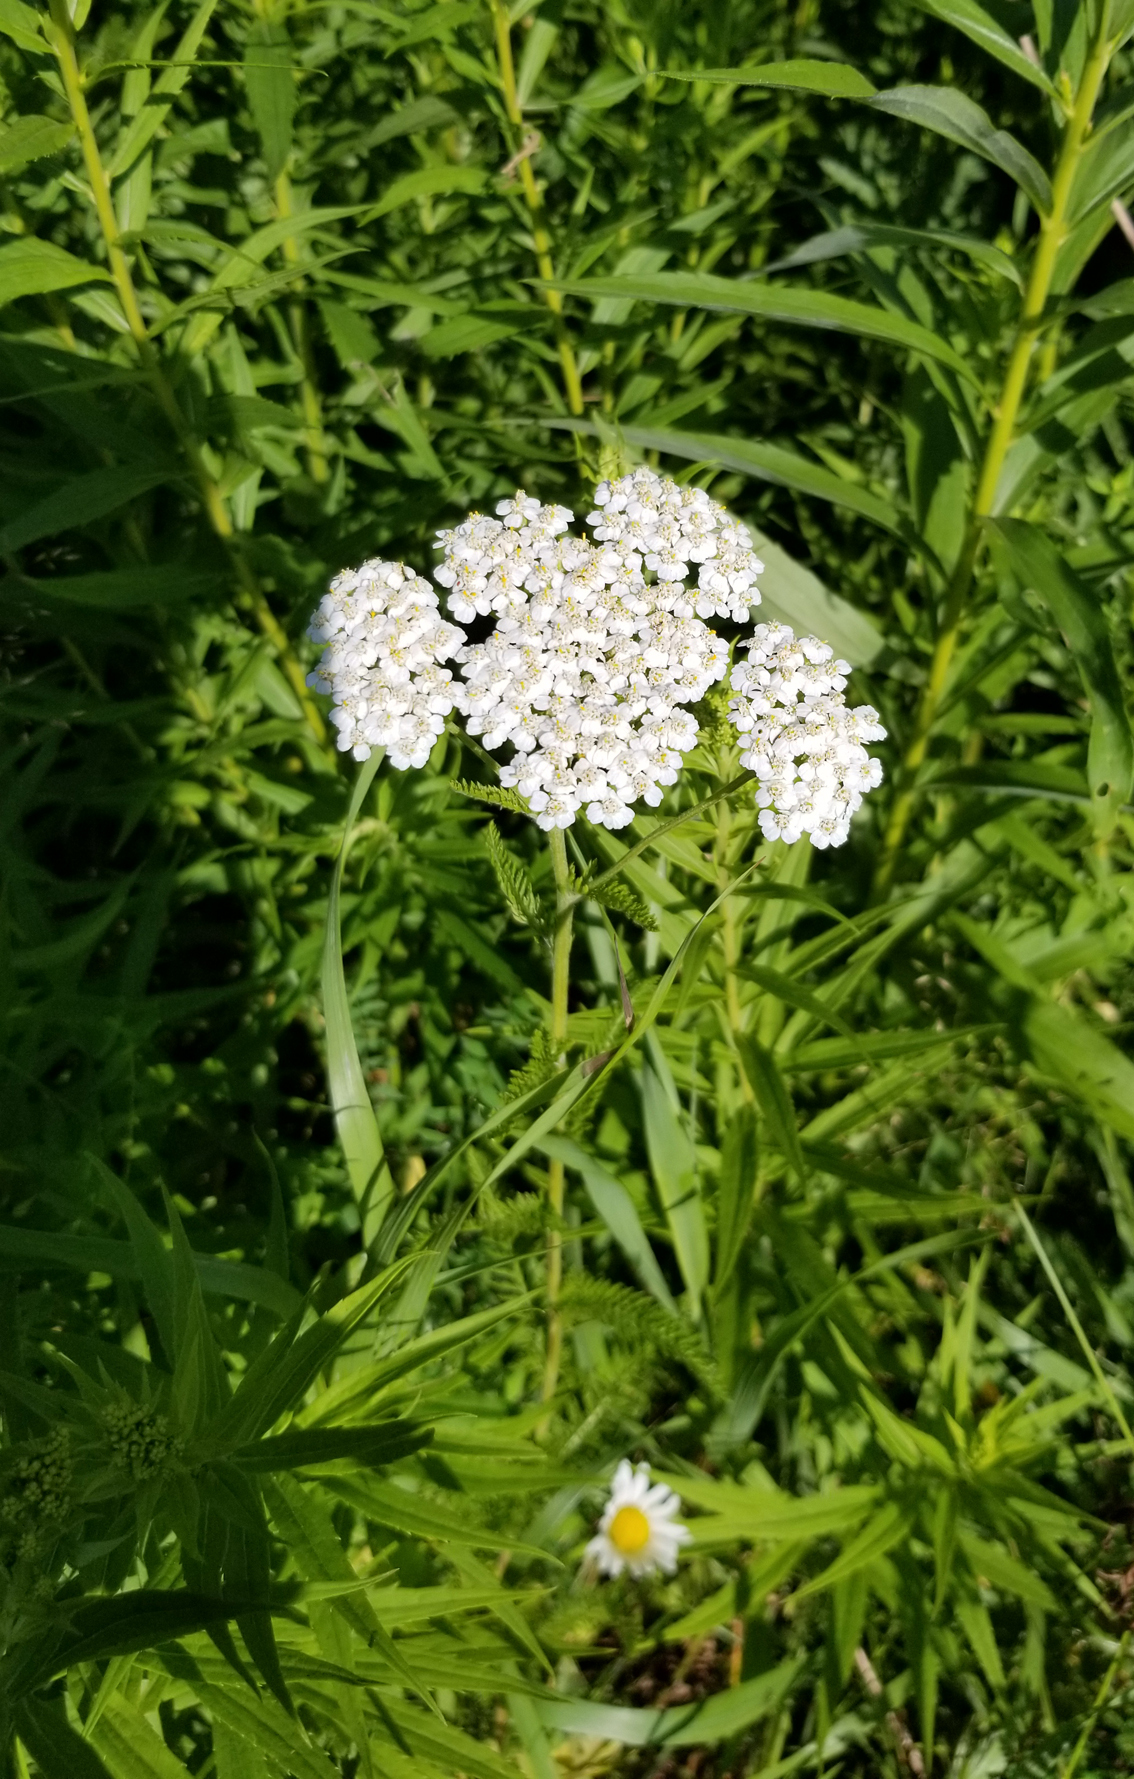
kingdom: Plantae
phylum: Tracheophyta
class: Magnoliopsida
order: Asterales
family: Asteraceae
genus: Achillea
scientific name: Achillea millefolium
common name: Yarrow
